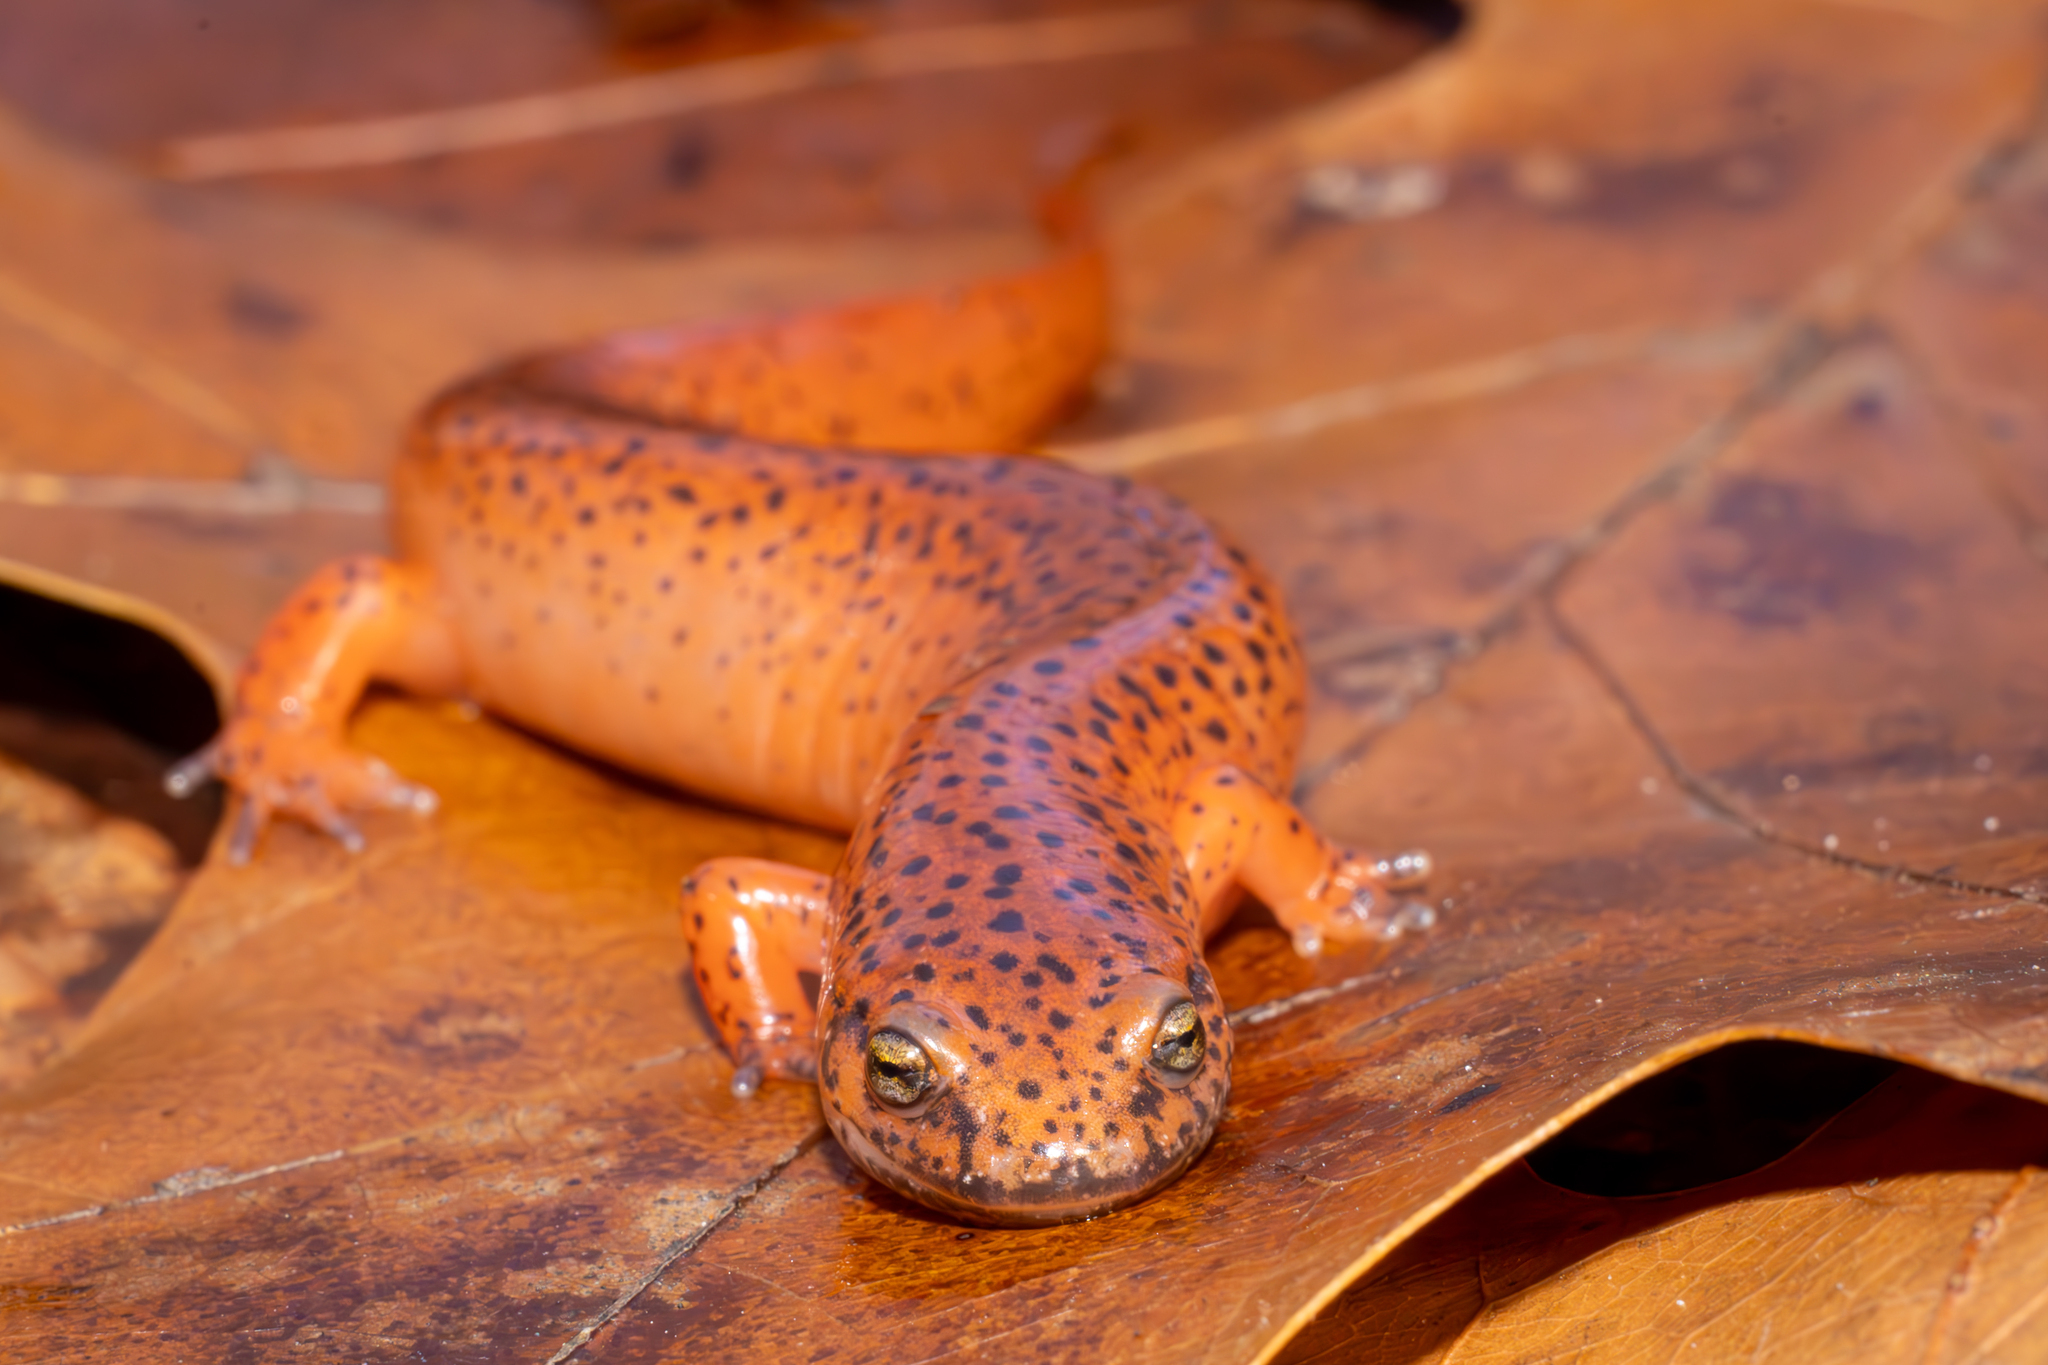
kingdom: Animalia
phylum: Chordata
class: Amphibia
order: Caudata
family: Plethodontidae
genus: Pseudotriton
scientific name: Pseudotriton ruber
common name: Red salamander
